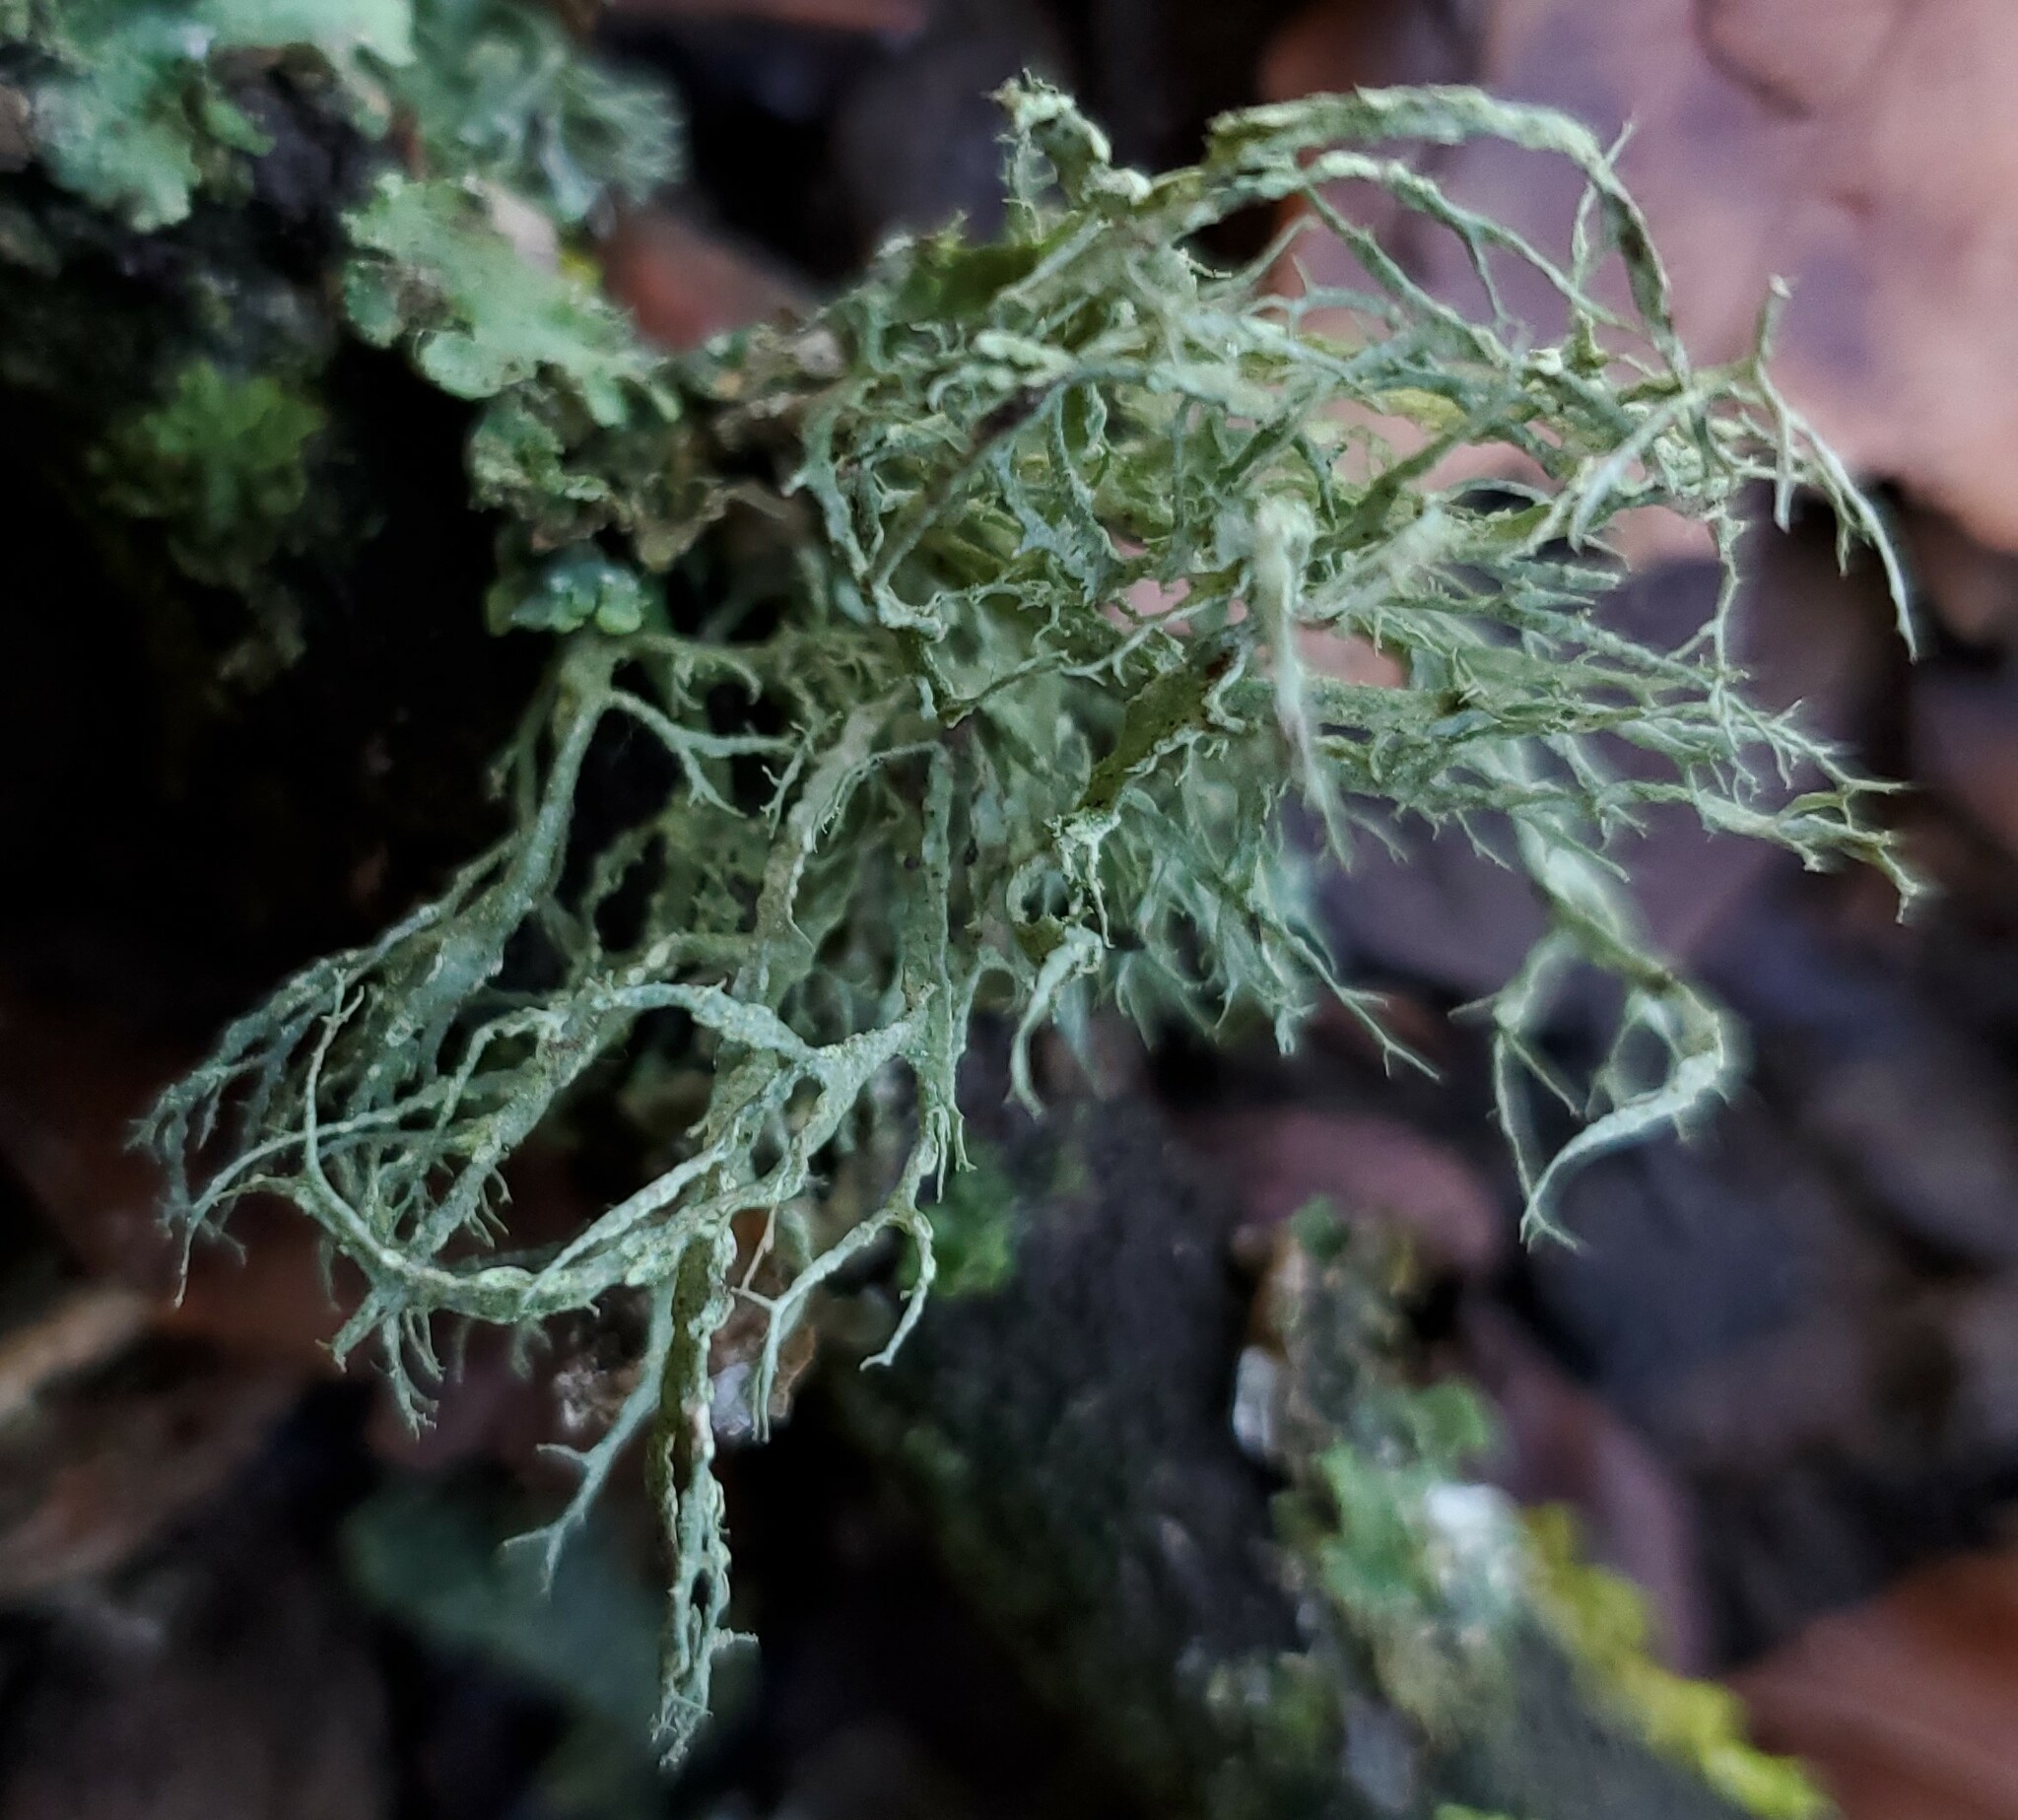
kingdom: Fungi
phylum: Ascomycota
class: Lecanoromycetes
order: Lecanorales
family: Ramalinaceae
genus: Ramalina
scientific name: Ramalina farinacea
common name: Farinose cartilage lichen
